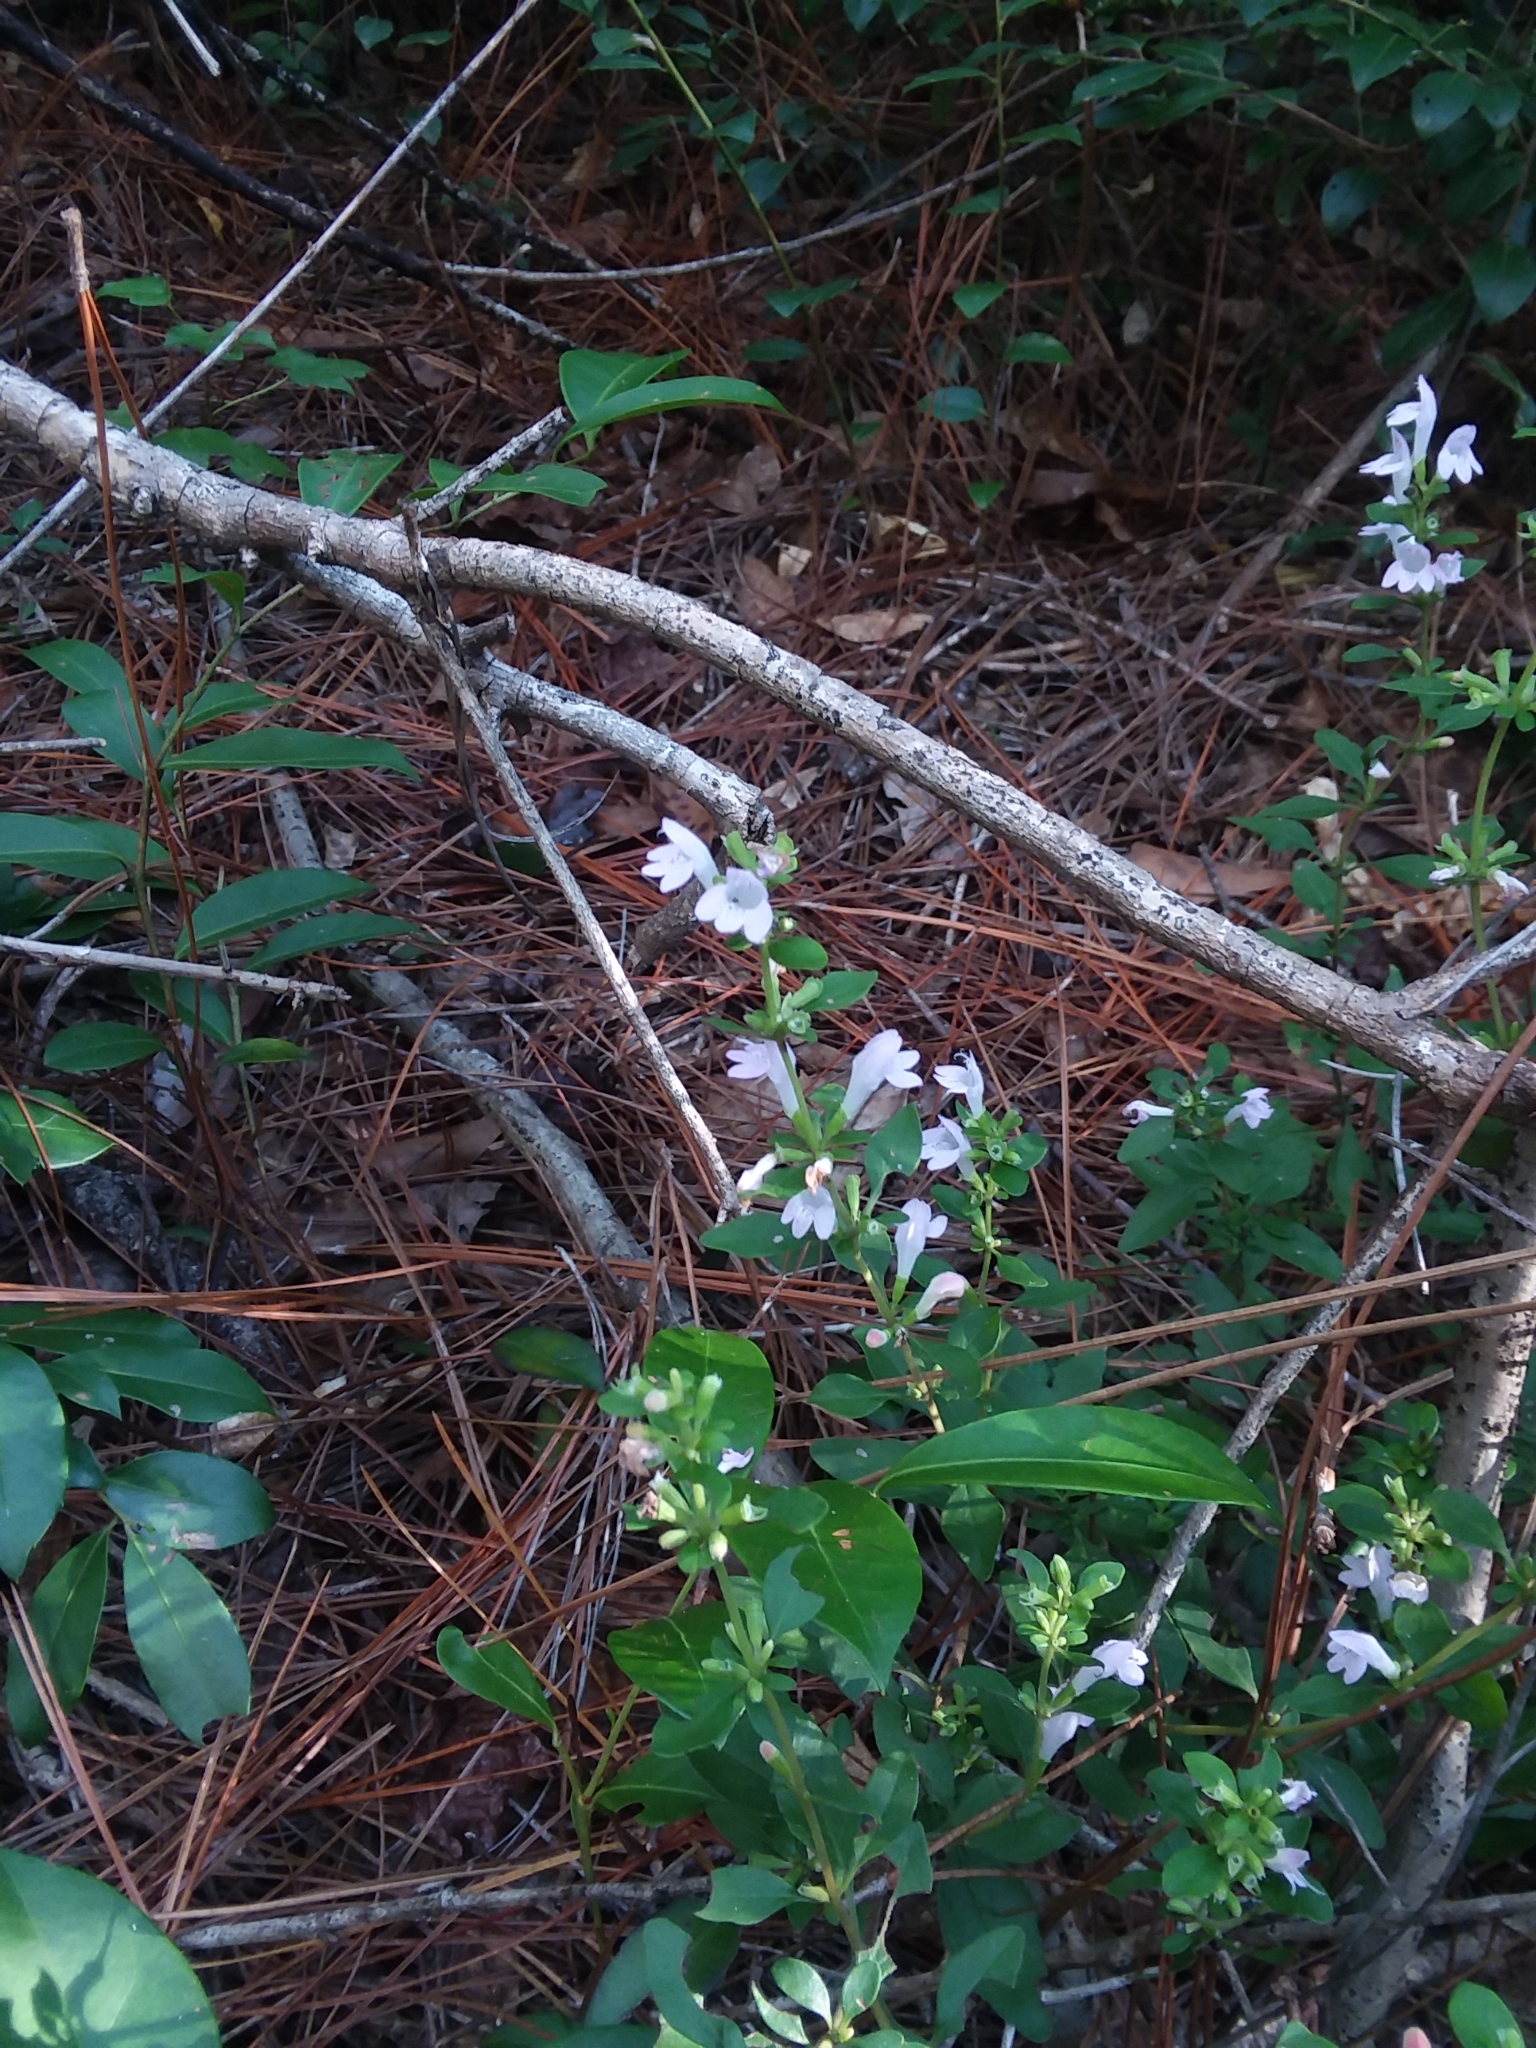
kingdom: Plantae
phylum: Tracheophyta
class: Magnoliopsida
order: Lamiales
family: Lamiaceae
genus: Clinopodium
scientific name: Clinopodium carolinianum
